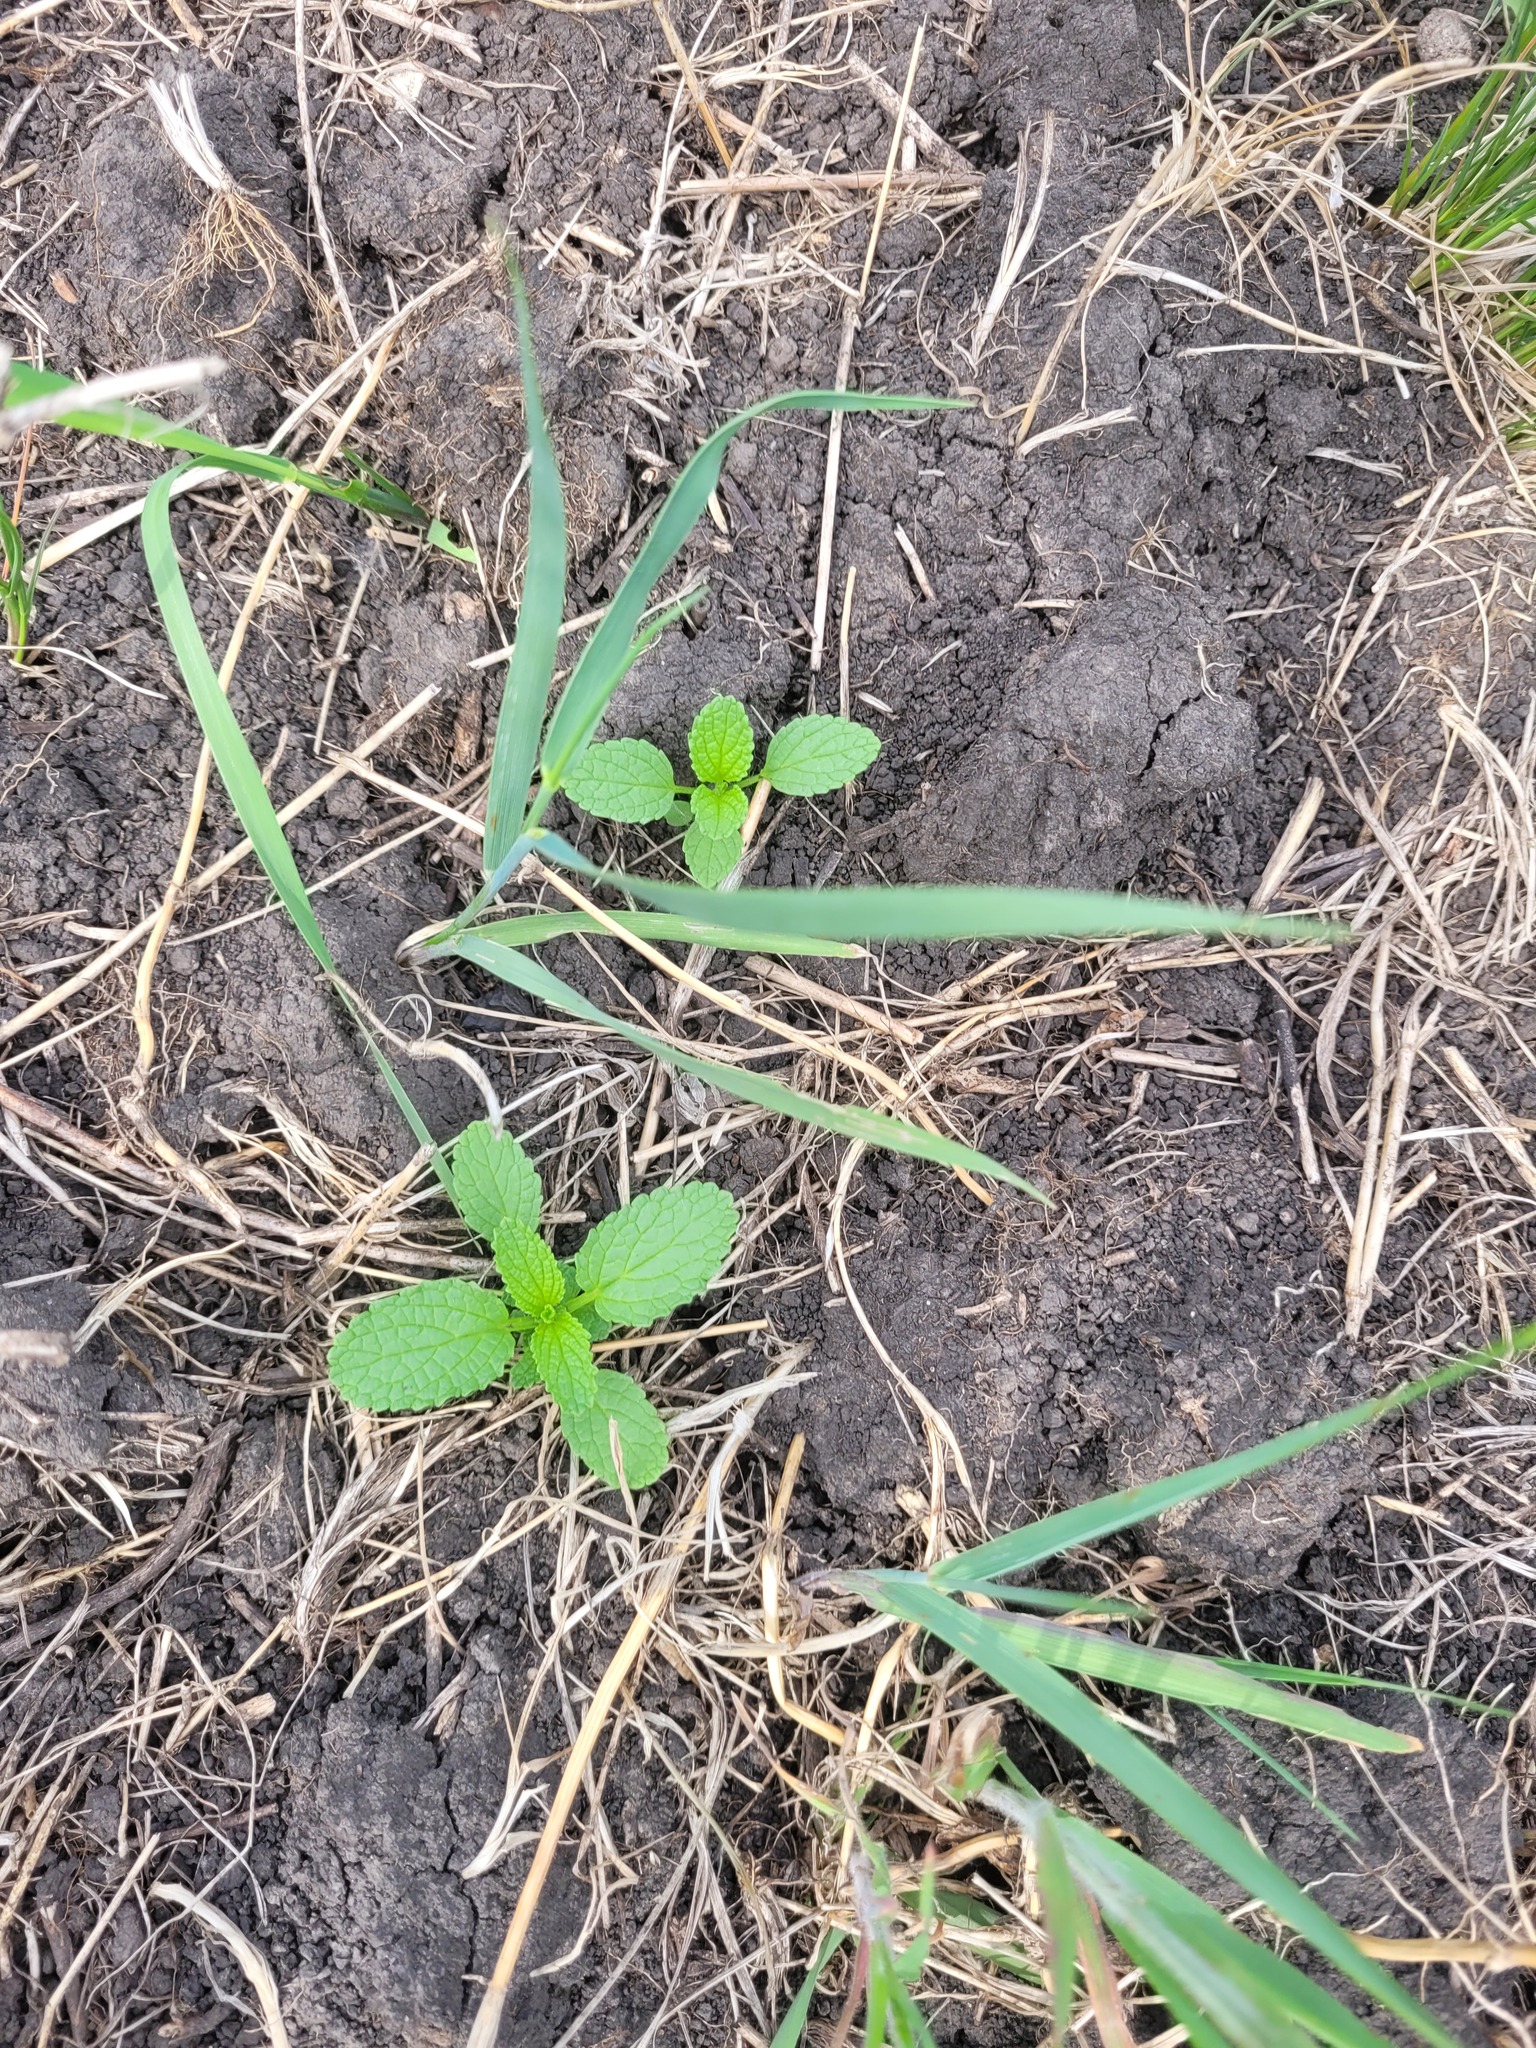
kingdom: Plantae
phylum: Tracheophyta
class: Magnoliopsida
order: Lamiales
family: Lamiaceae
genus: Stachys
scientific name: Stachys annua
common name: Annual yellow-woundwort
